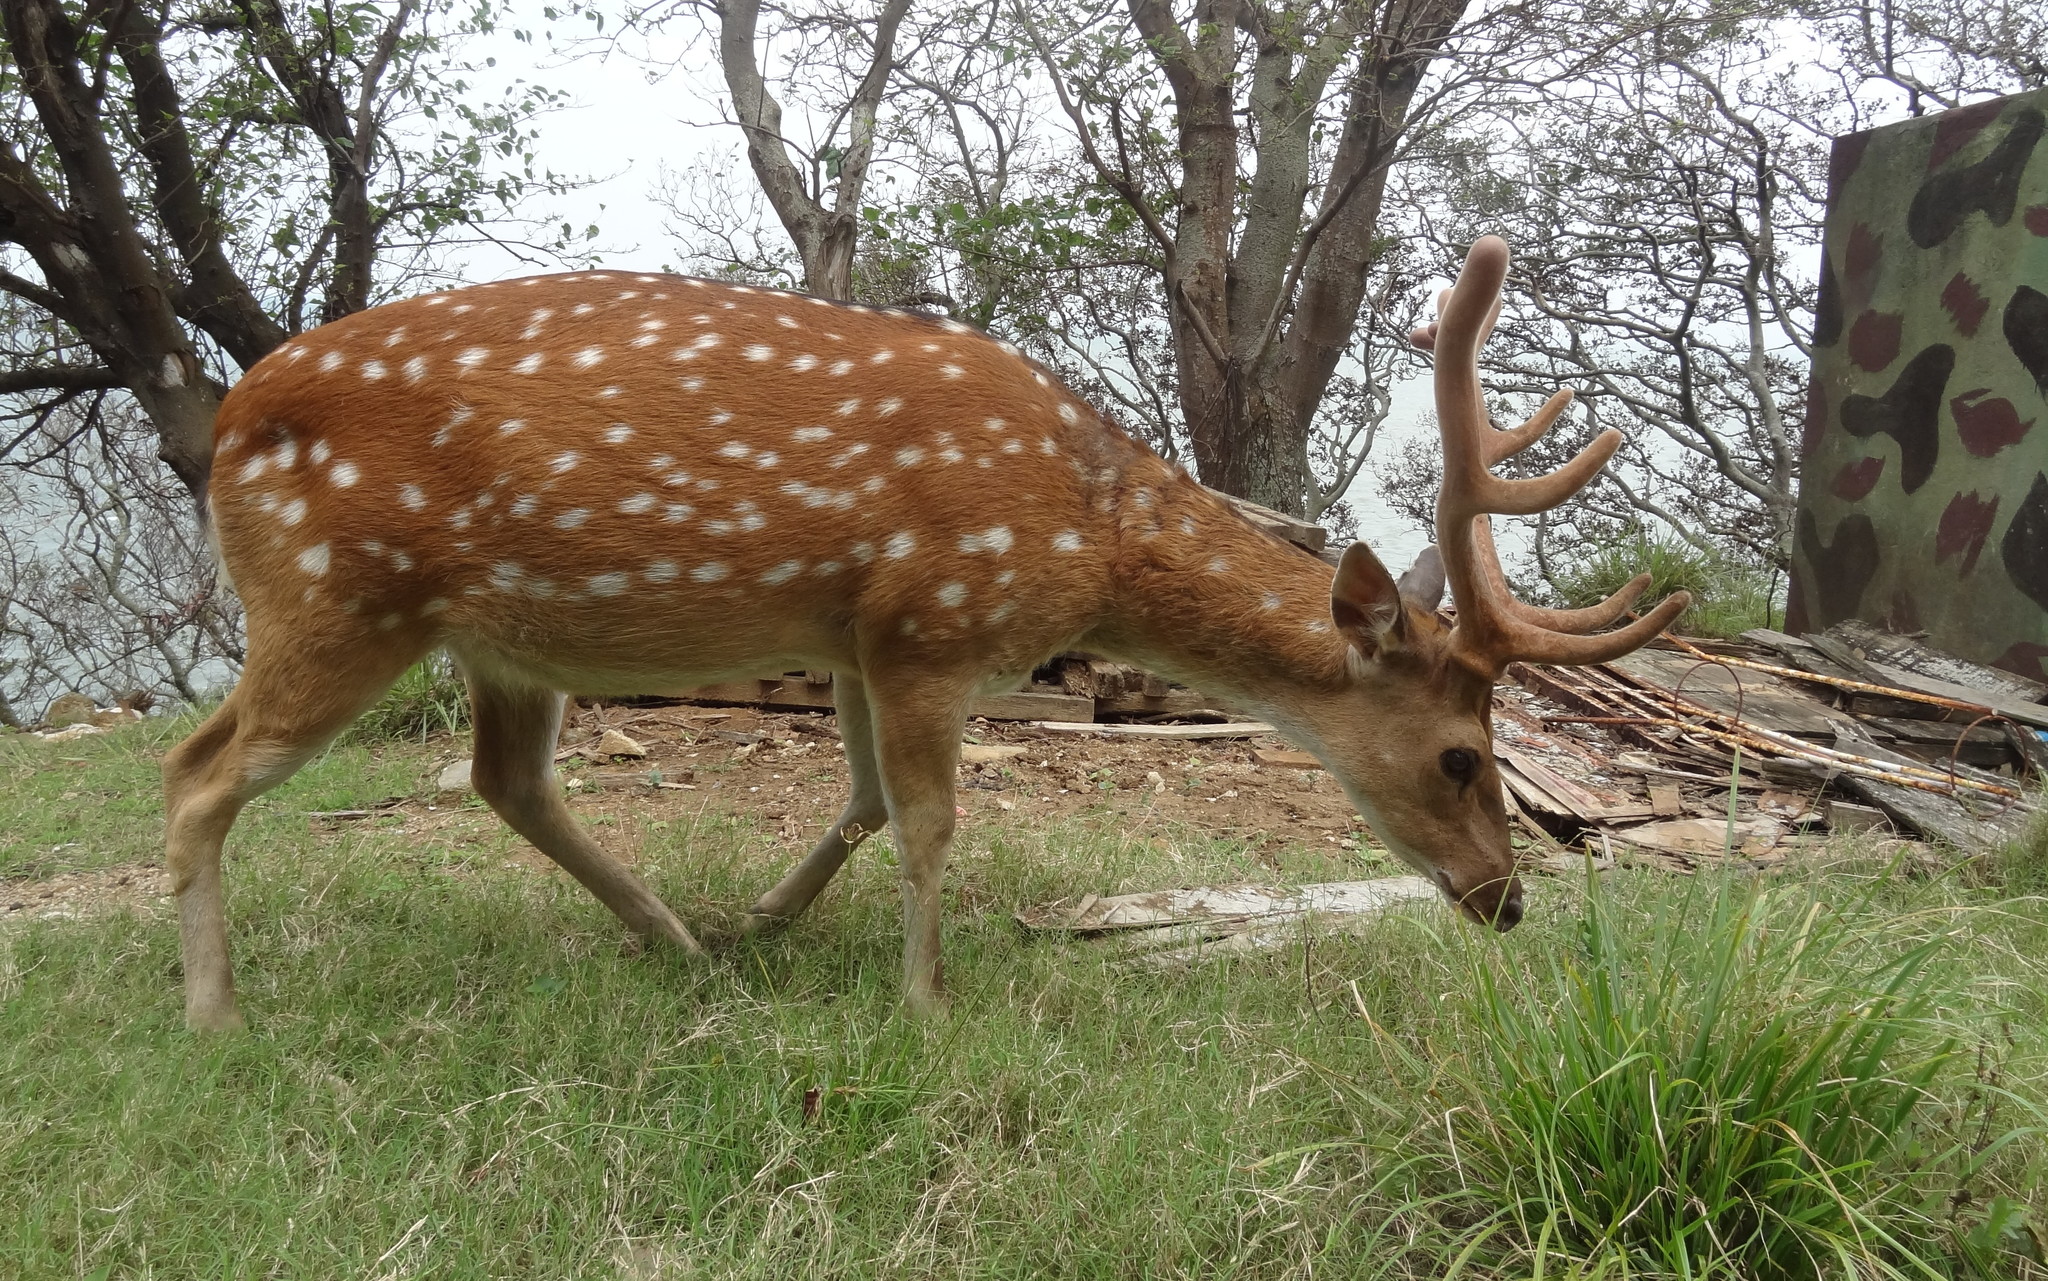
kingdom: Animalia
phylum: Chordata
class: Mammalia
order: Artiodactyla
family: Cervidae
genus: Cervus
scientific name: Cervus nippon
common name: Sika deer
